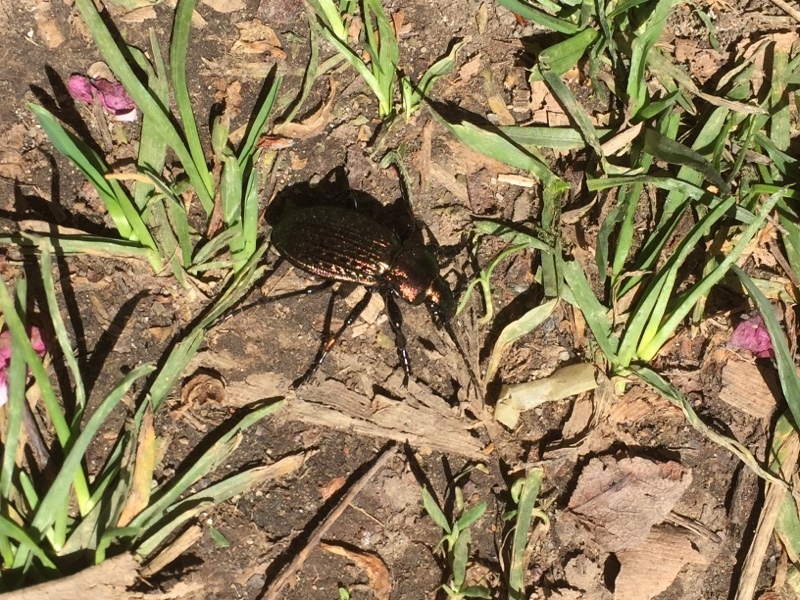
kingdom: Animalia
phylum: Arthropoda
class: Insecta
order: Coleoptera
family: Carabidae
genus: Carabus
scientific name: Carabus ulrichii
